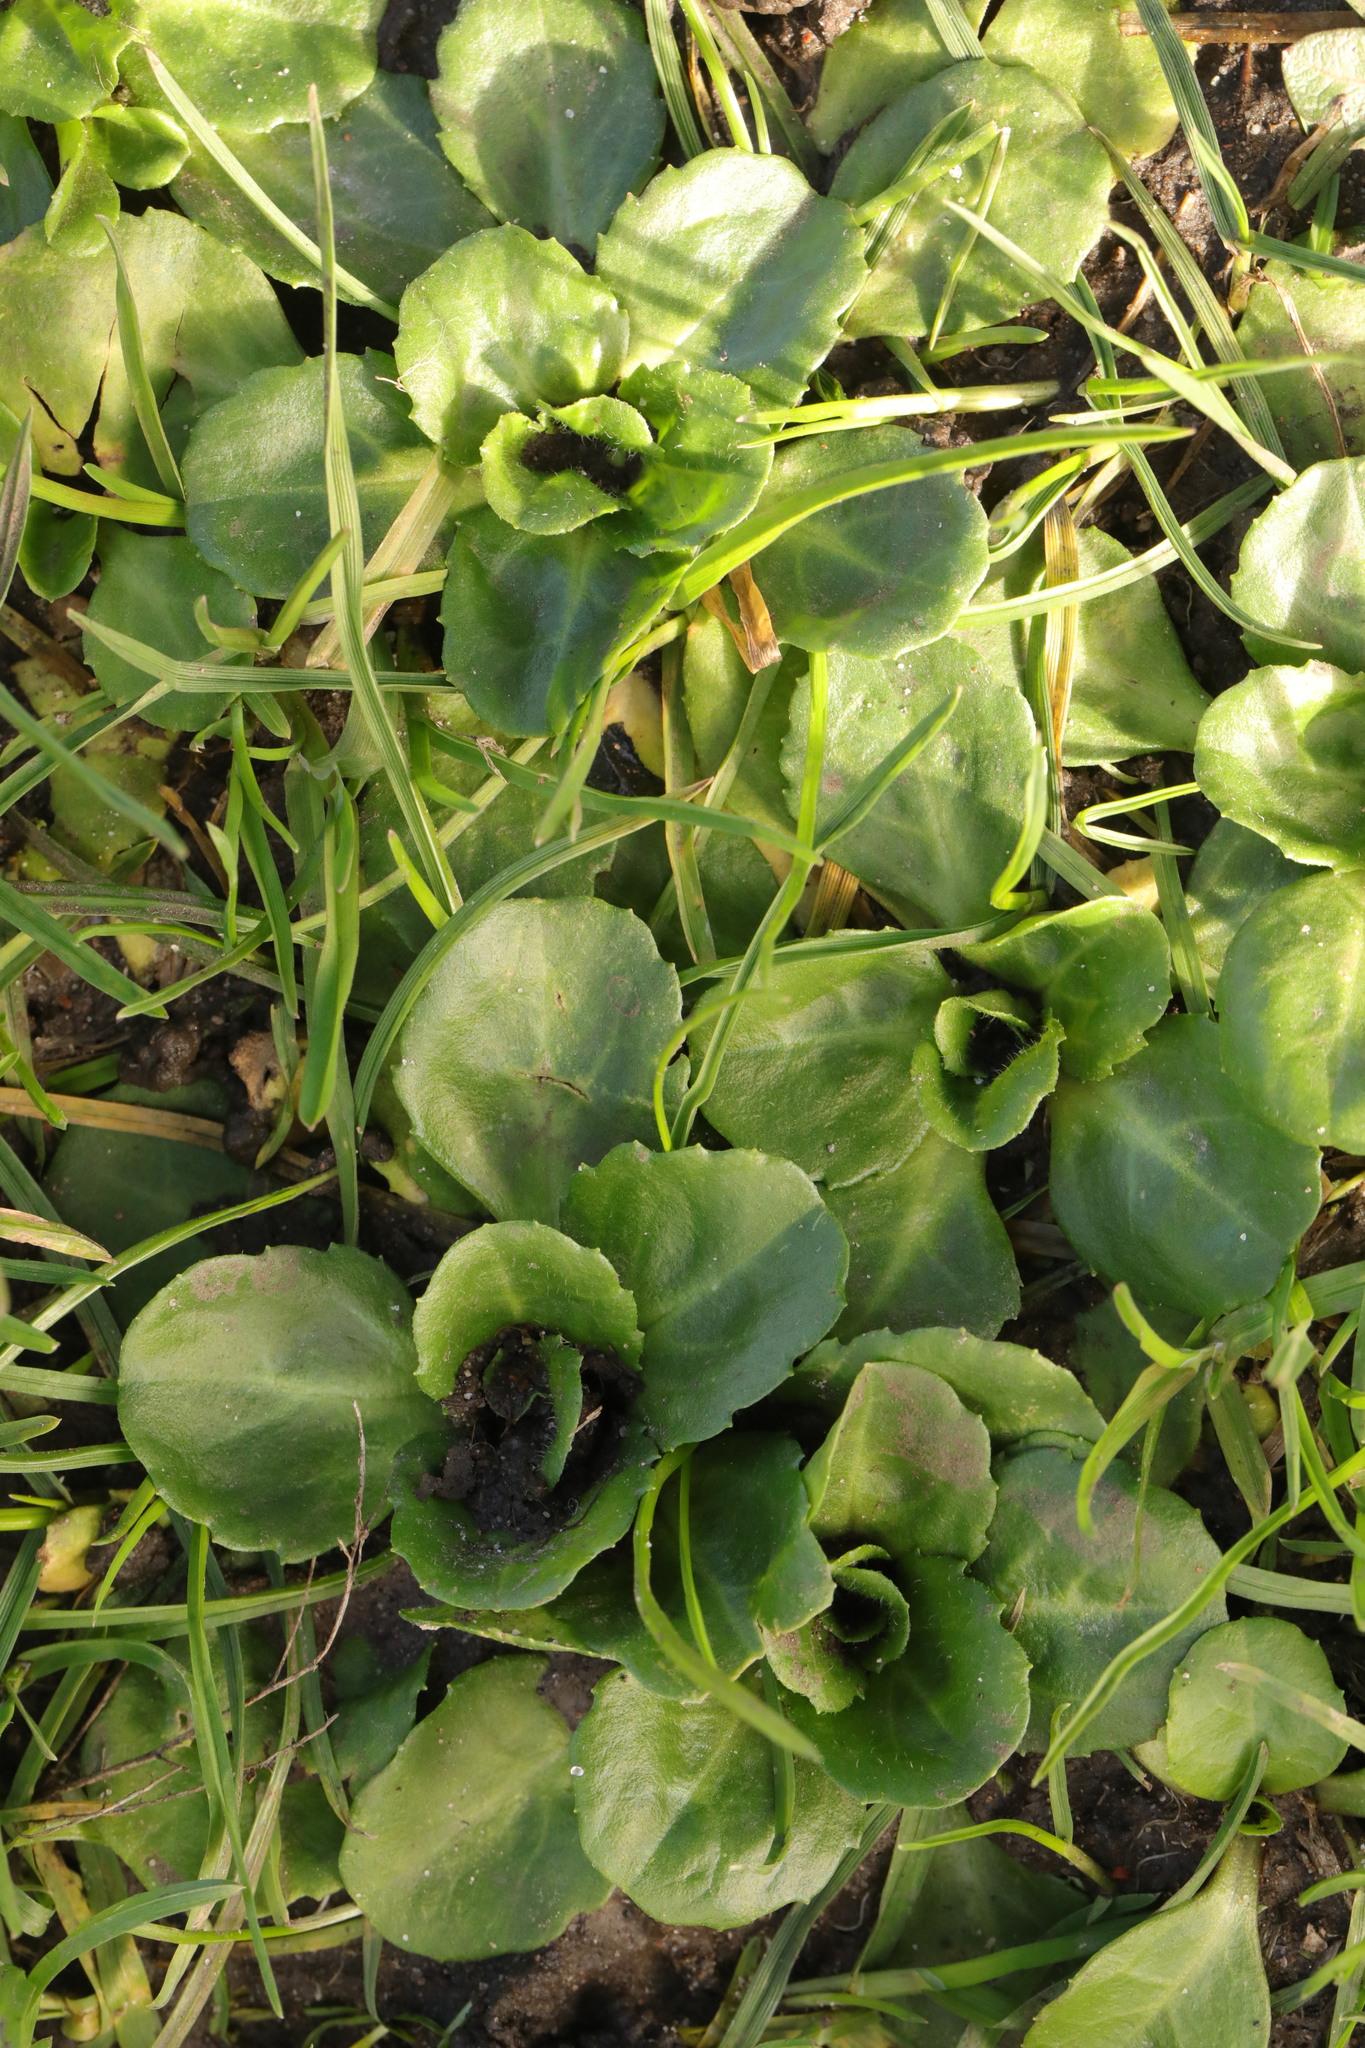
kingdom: Plantae
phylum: Tracheophyta
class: Magnoliopsida
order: Asterales
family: Asteraceae
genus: Bellis
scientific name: Bellis perennis
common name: Lawndaisy
